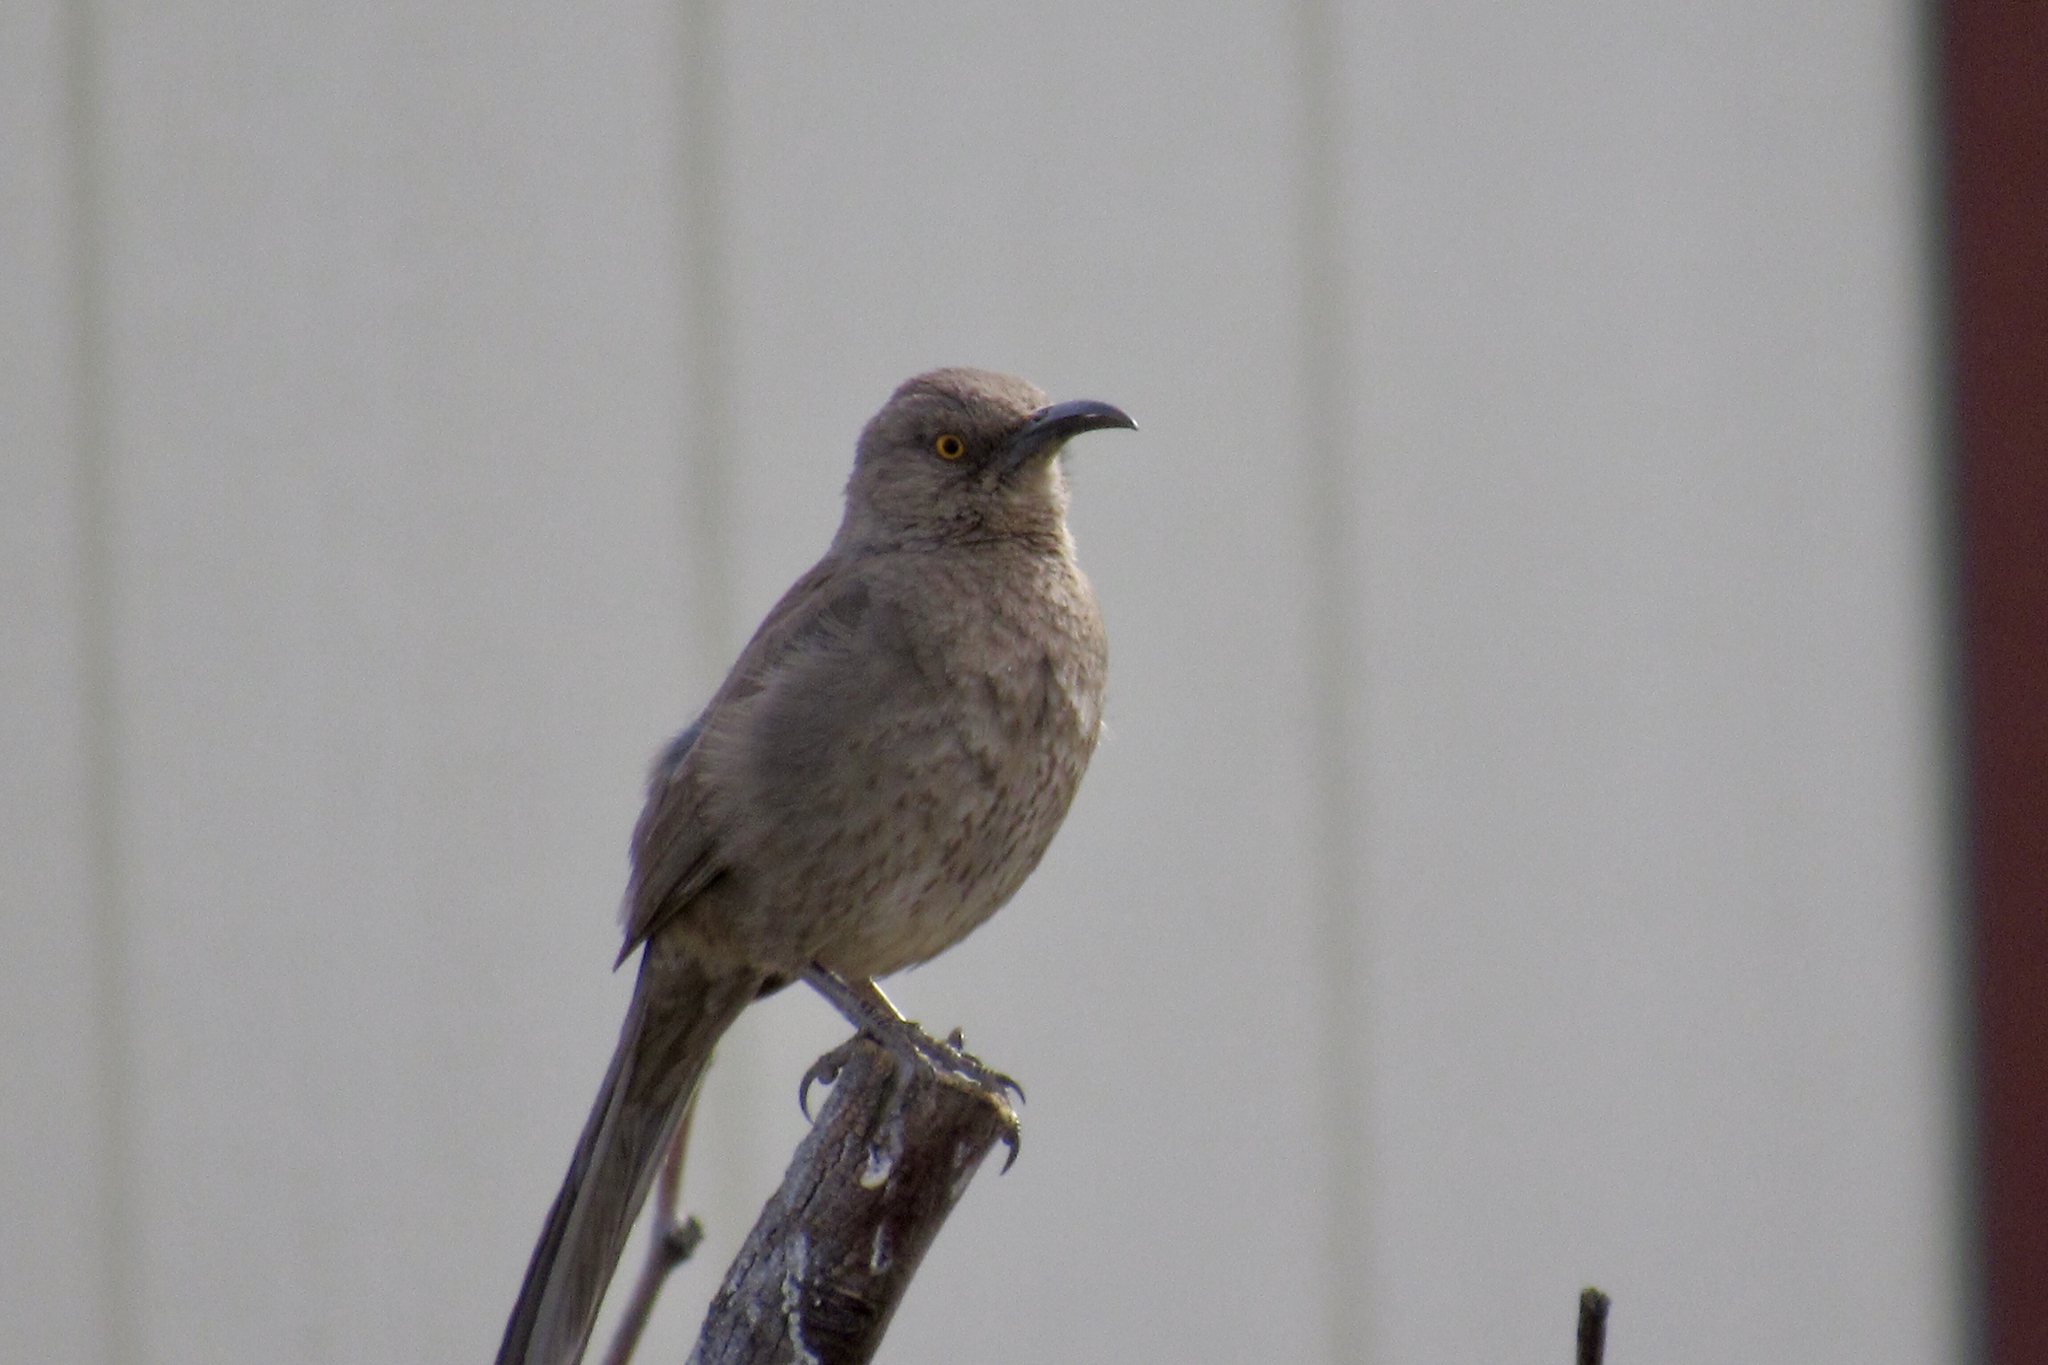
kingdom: Animalia
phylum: Chordata
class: Aves
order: Passeriformes
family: Mimidae
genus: Toxostoma
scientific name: Toxostoma curvirostre
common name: Curve-billed thrasher
